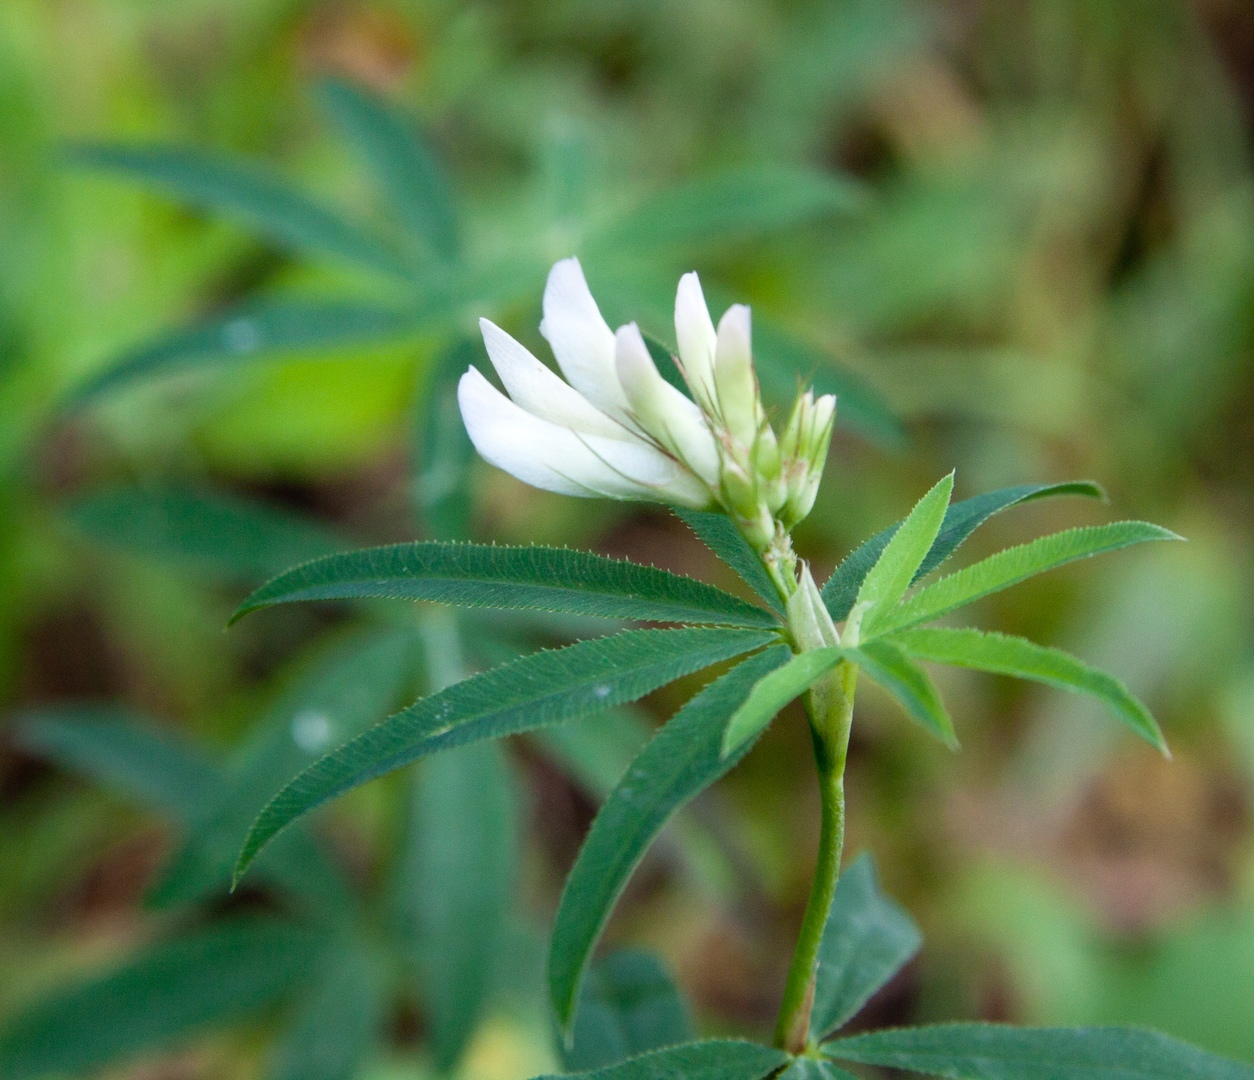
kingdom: Plantae
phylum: Tracheophyta
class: Magnoliopsida
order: Fabales
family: Fabaceae
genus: Trifolium
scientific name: Trifolium lupinaster
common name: Lupine clover
